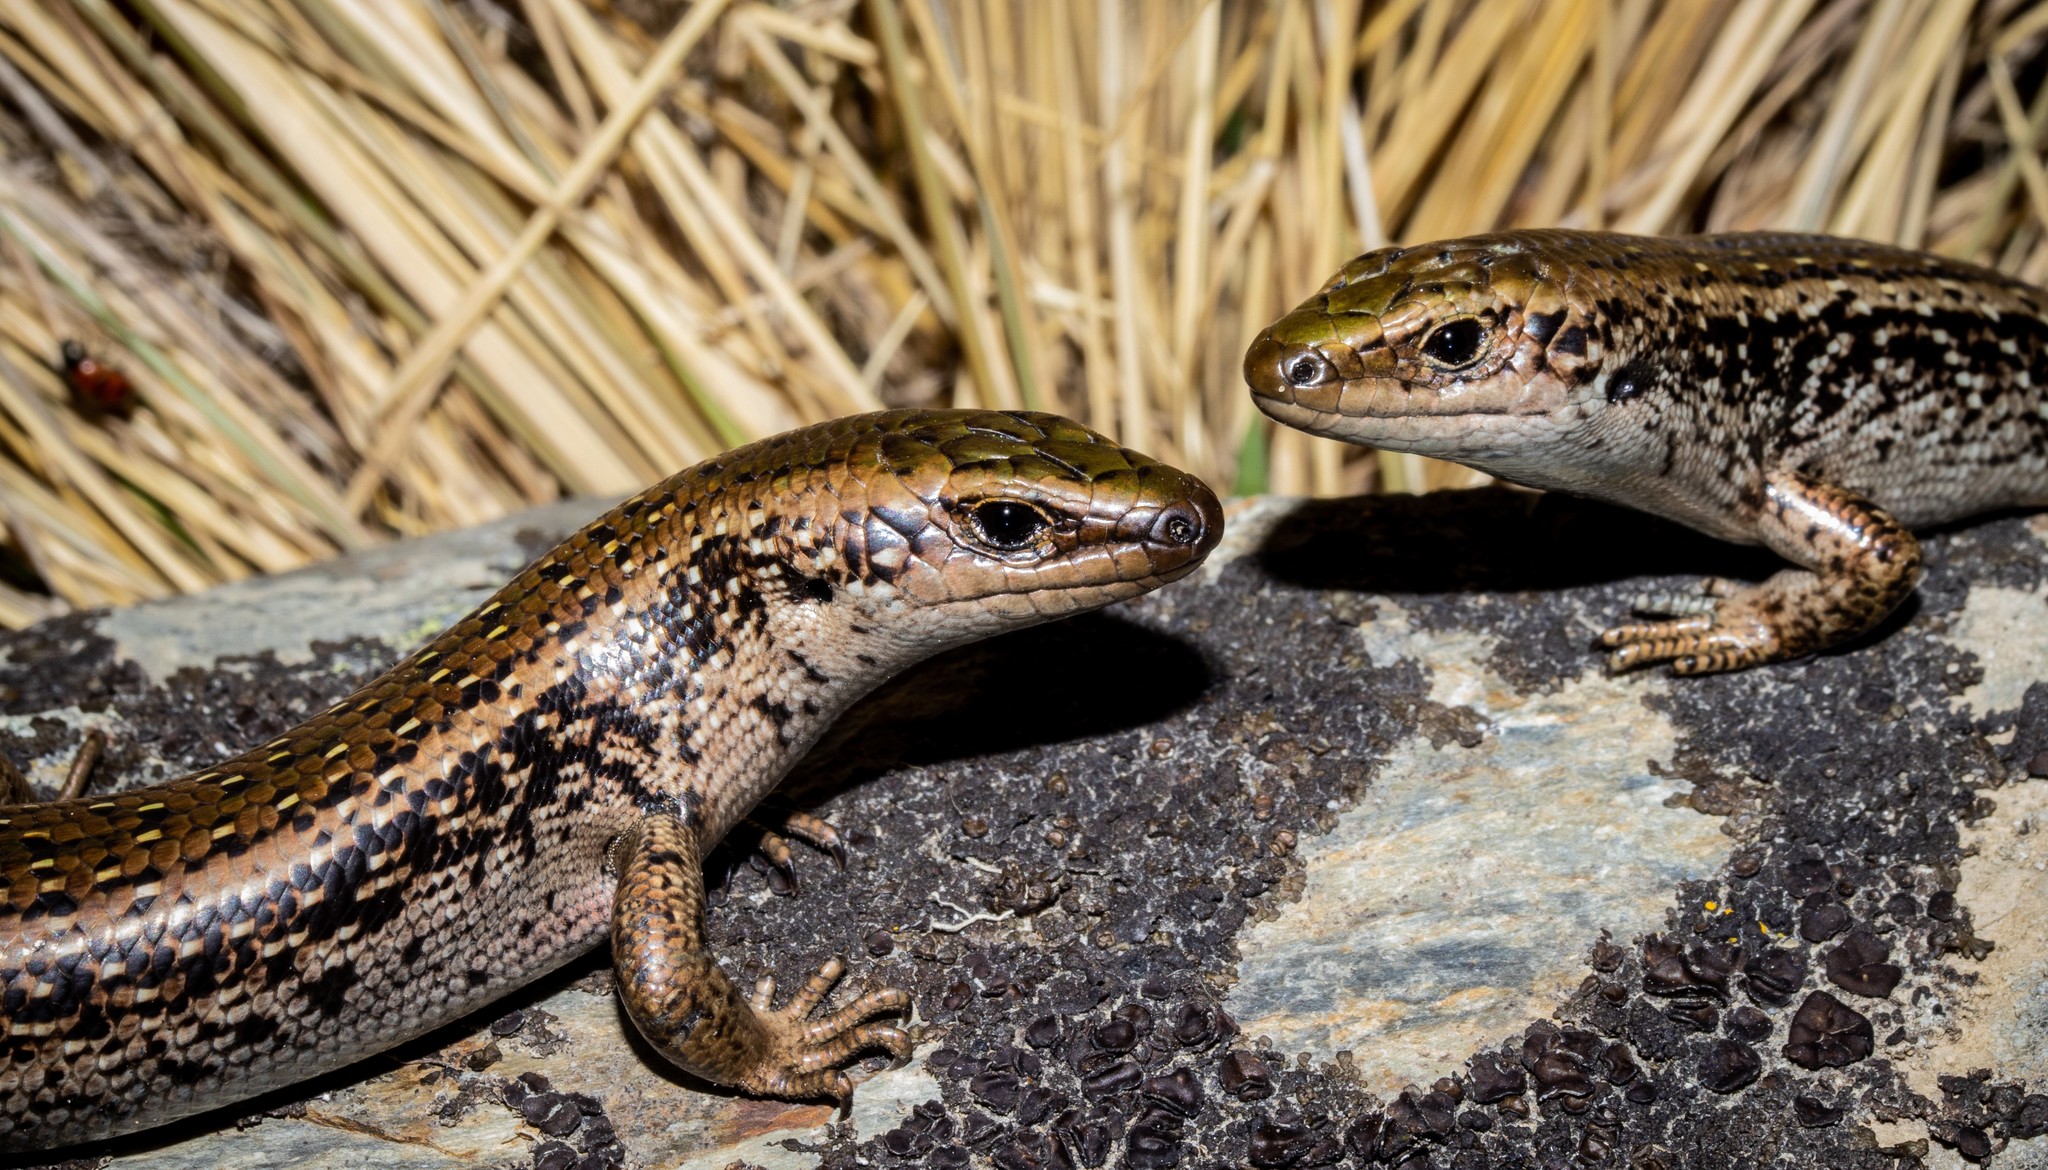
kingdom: Animalia
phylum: Chordata
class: Squamata
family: Scincidae
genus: Oligosoma
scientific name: Oligosoma chloronoton
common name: Green skink
